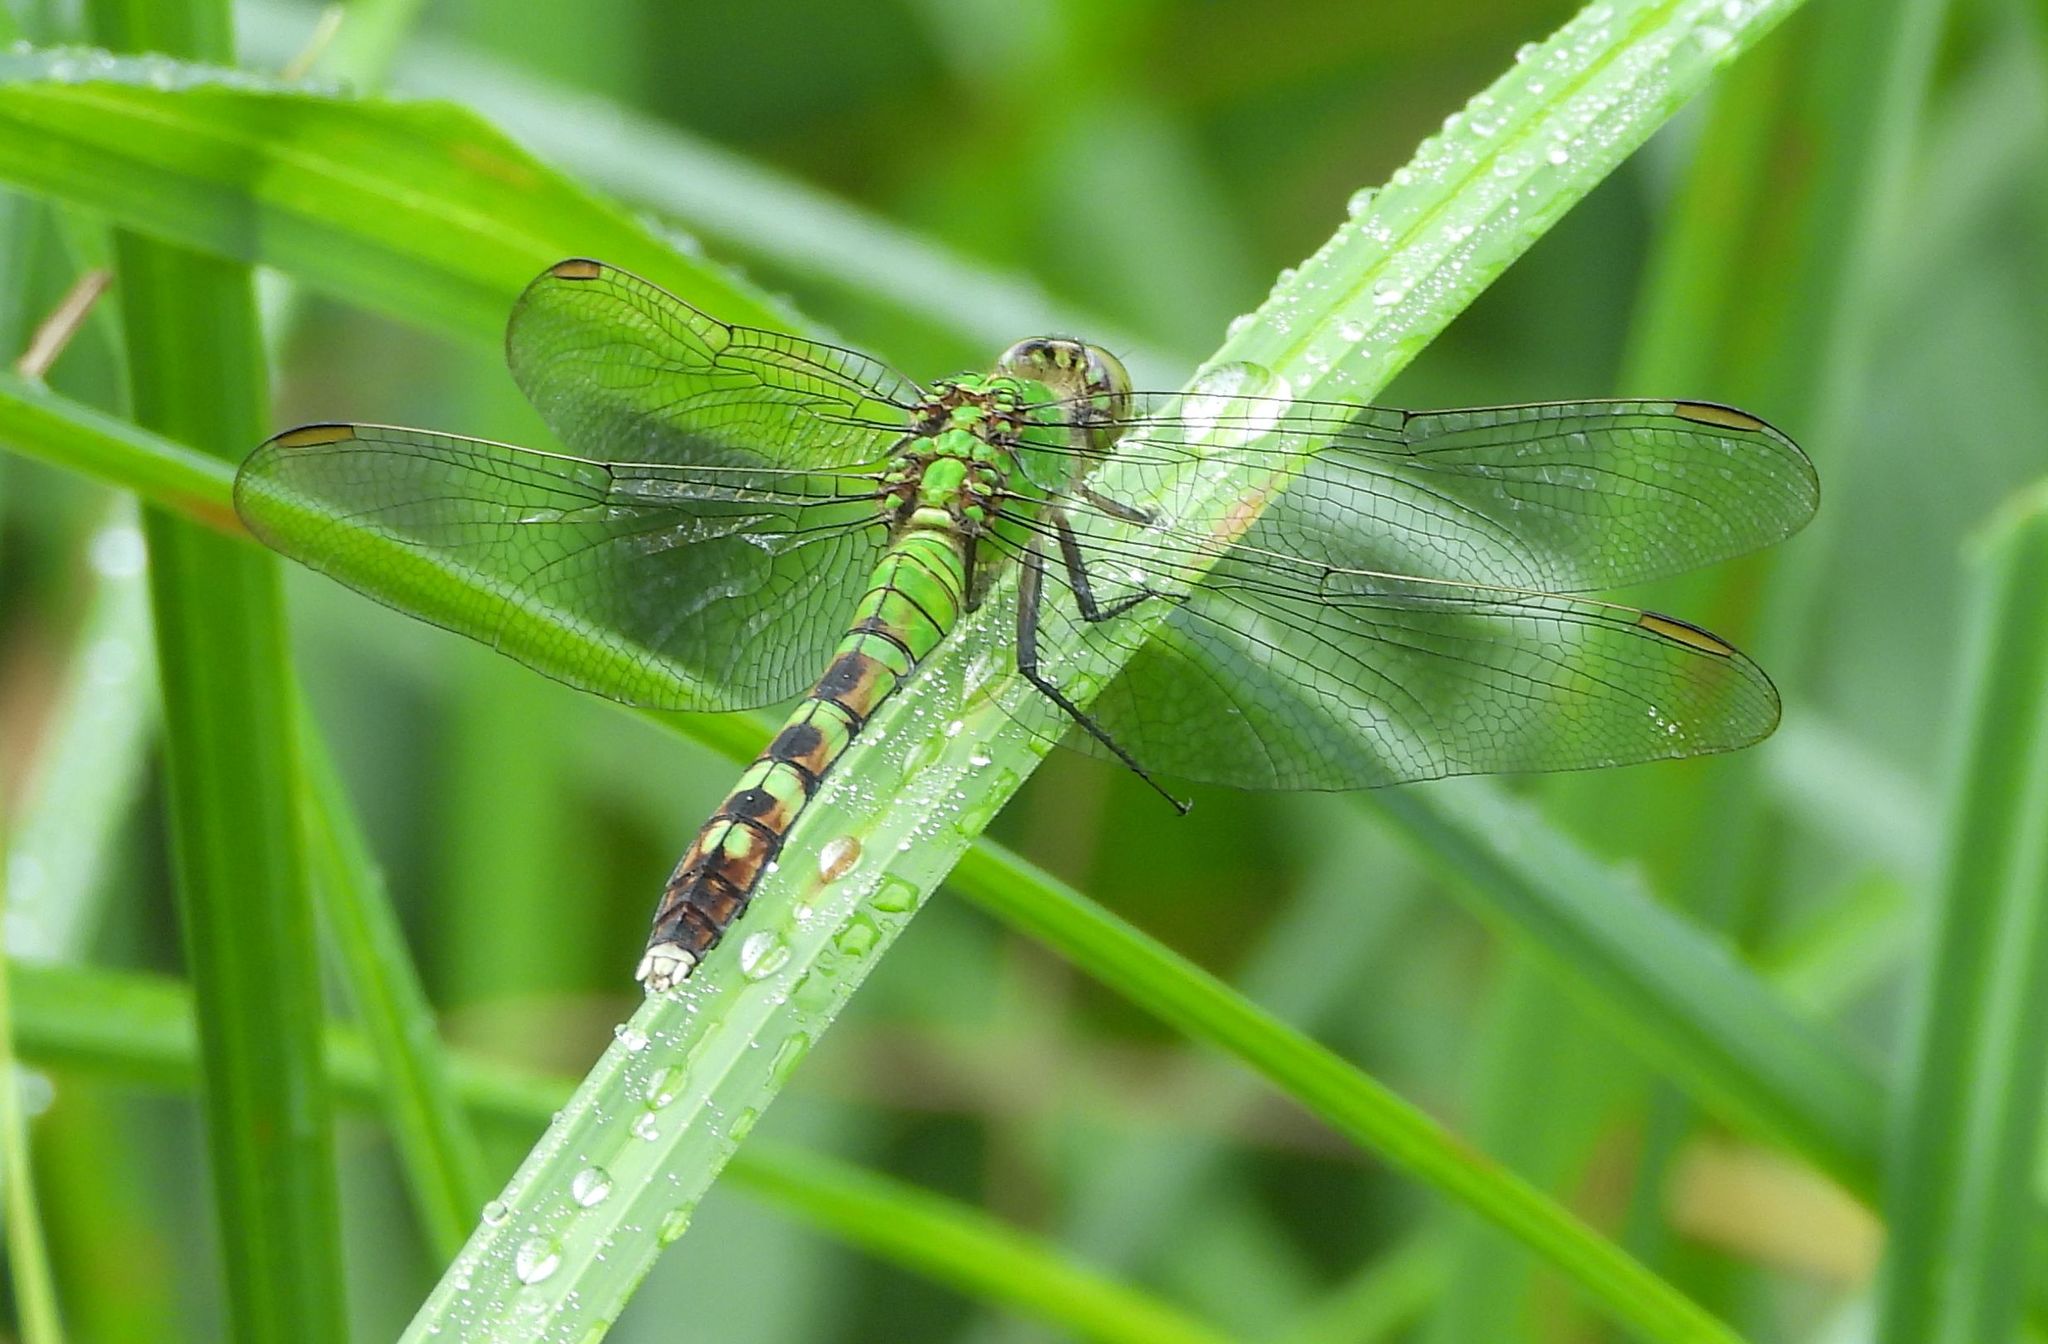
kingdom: Animalia
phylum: Arthropoda
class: Insecta
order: Odonata
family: Libellulidae
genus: Erythemis
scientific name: Erythemis simplicicollis
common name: Eastern pondhawk
